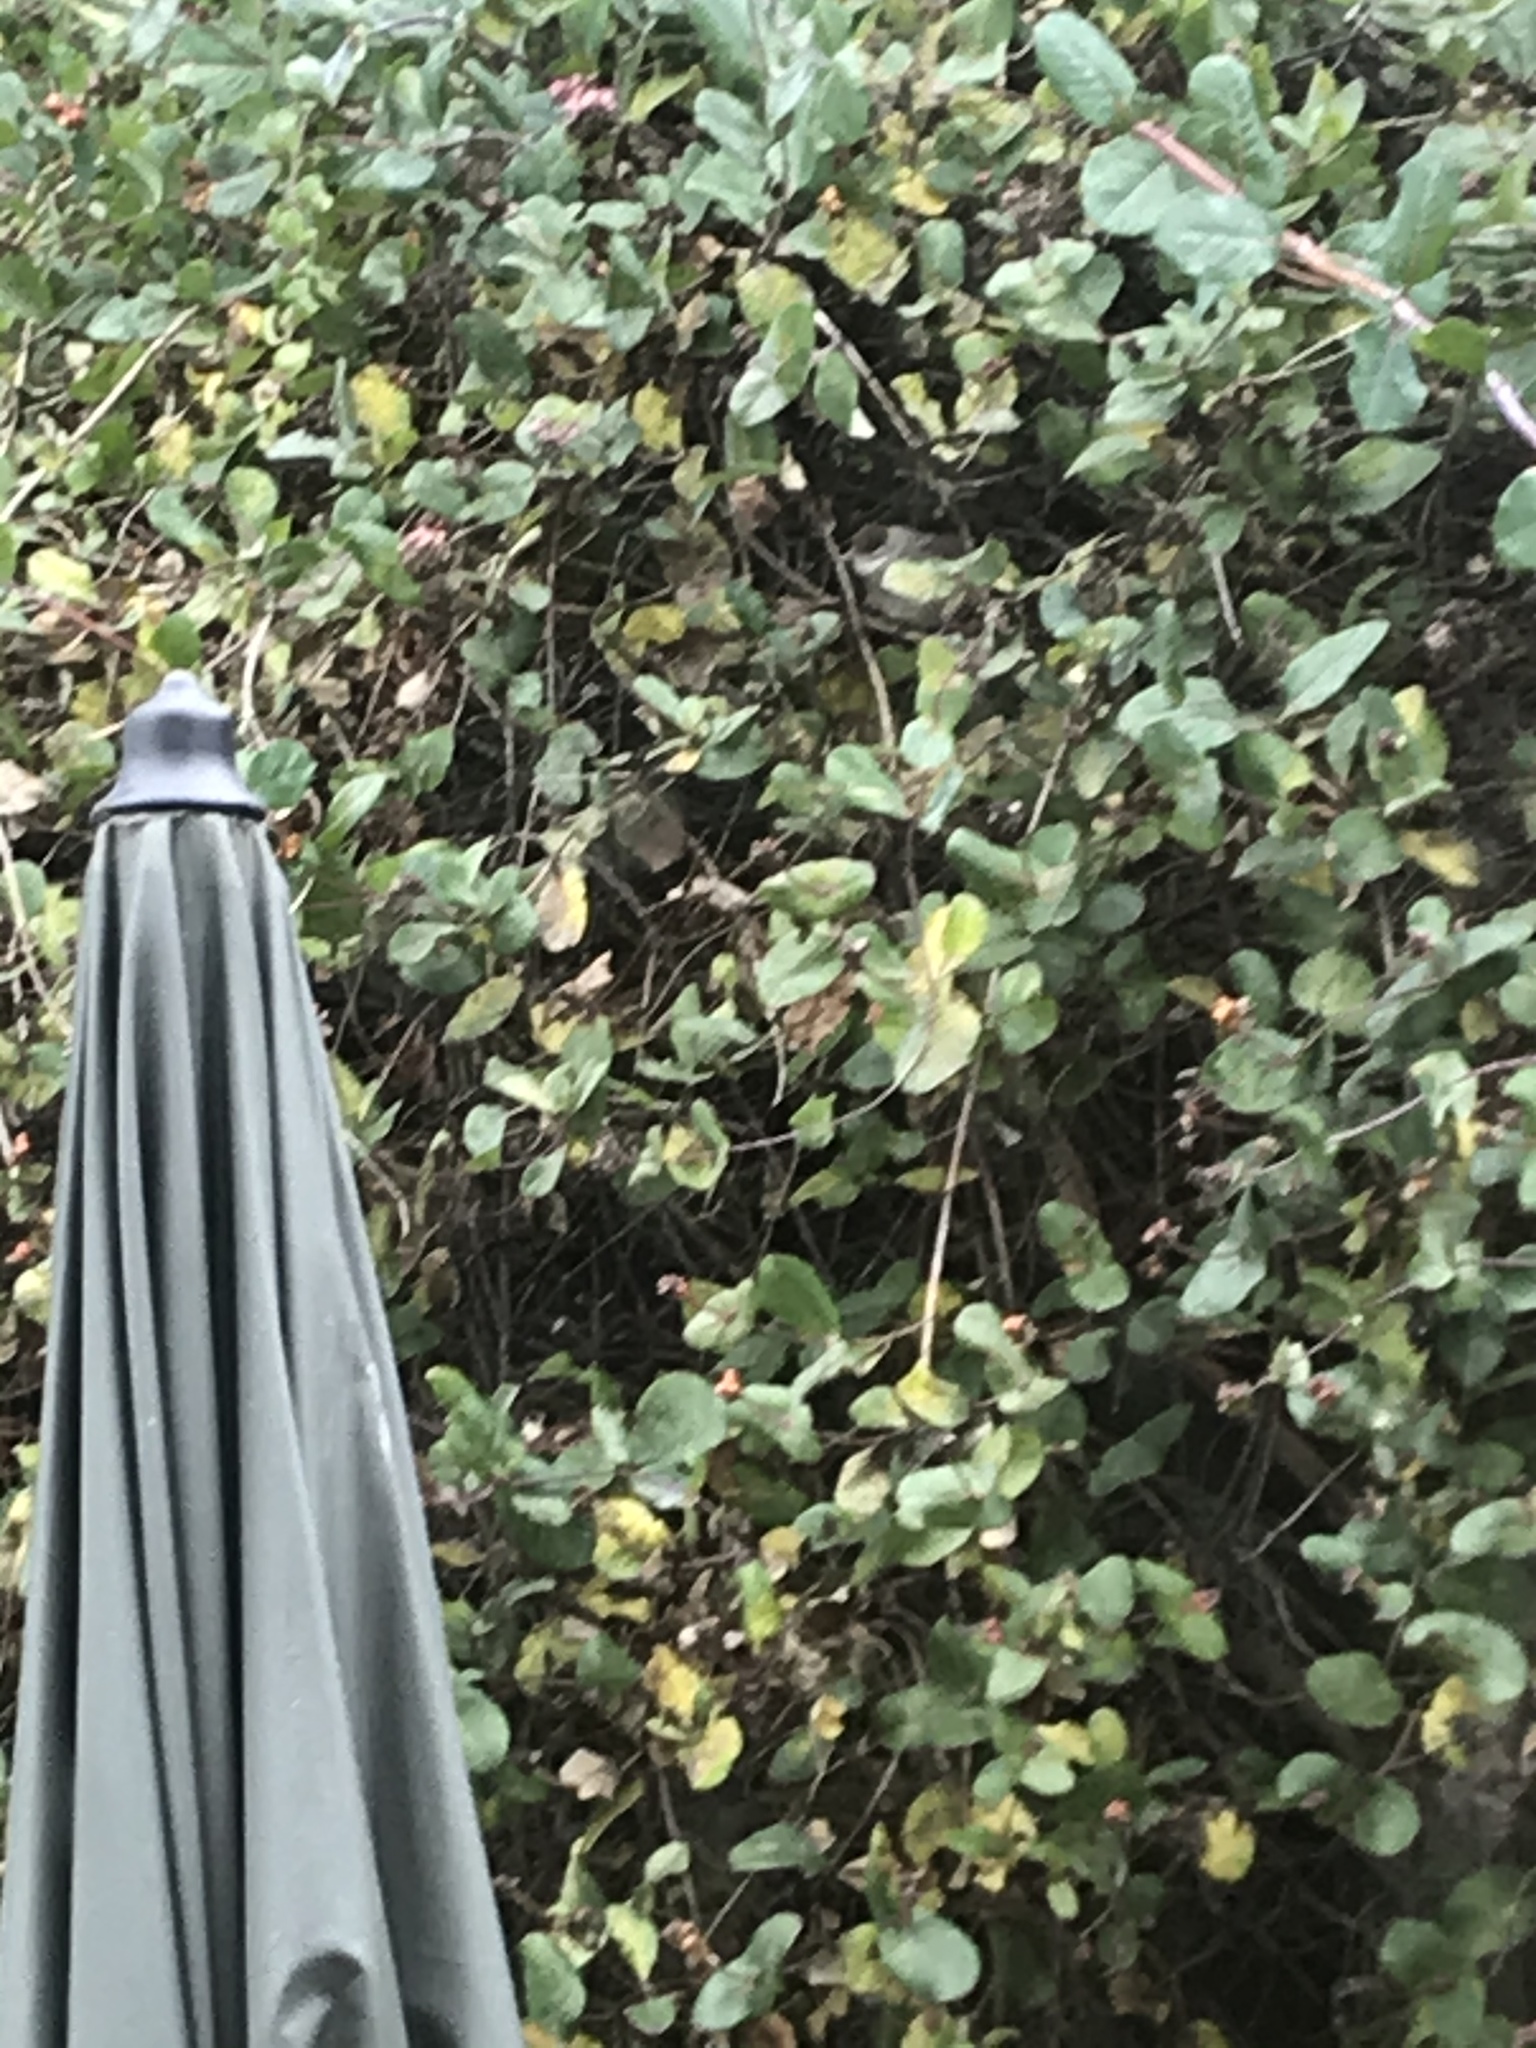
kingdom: Animalia
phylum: Chordata
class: Aves
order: Passeriformes
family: Sylviidae
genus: Sylvia
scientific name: Sylvia atricapilla
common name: Eurasian blackcap
